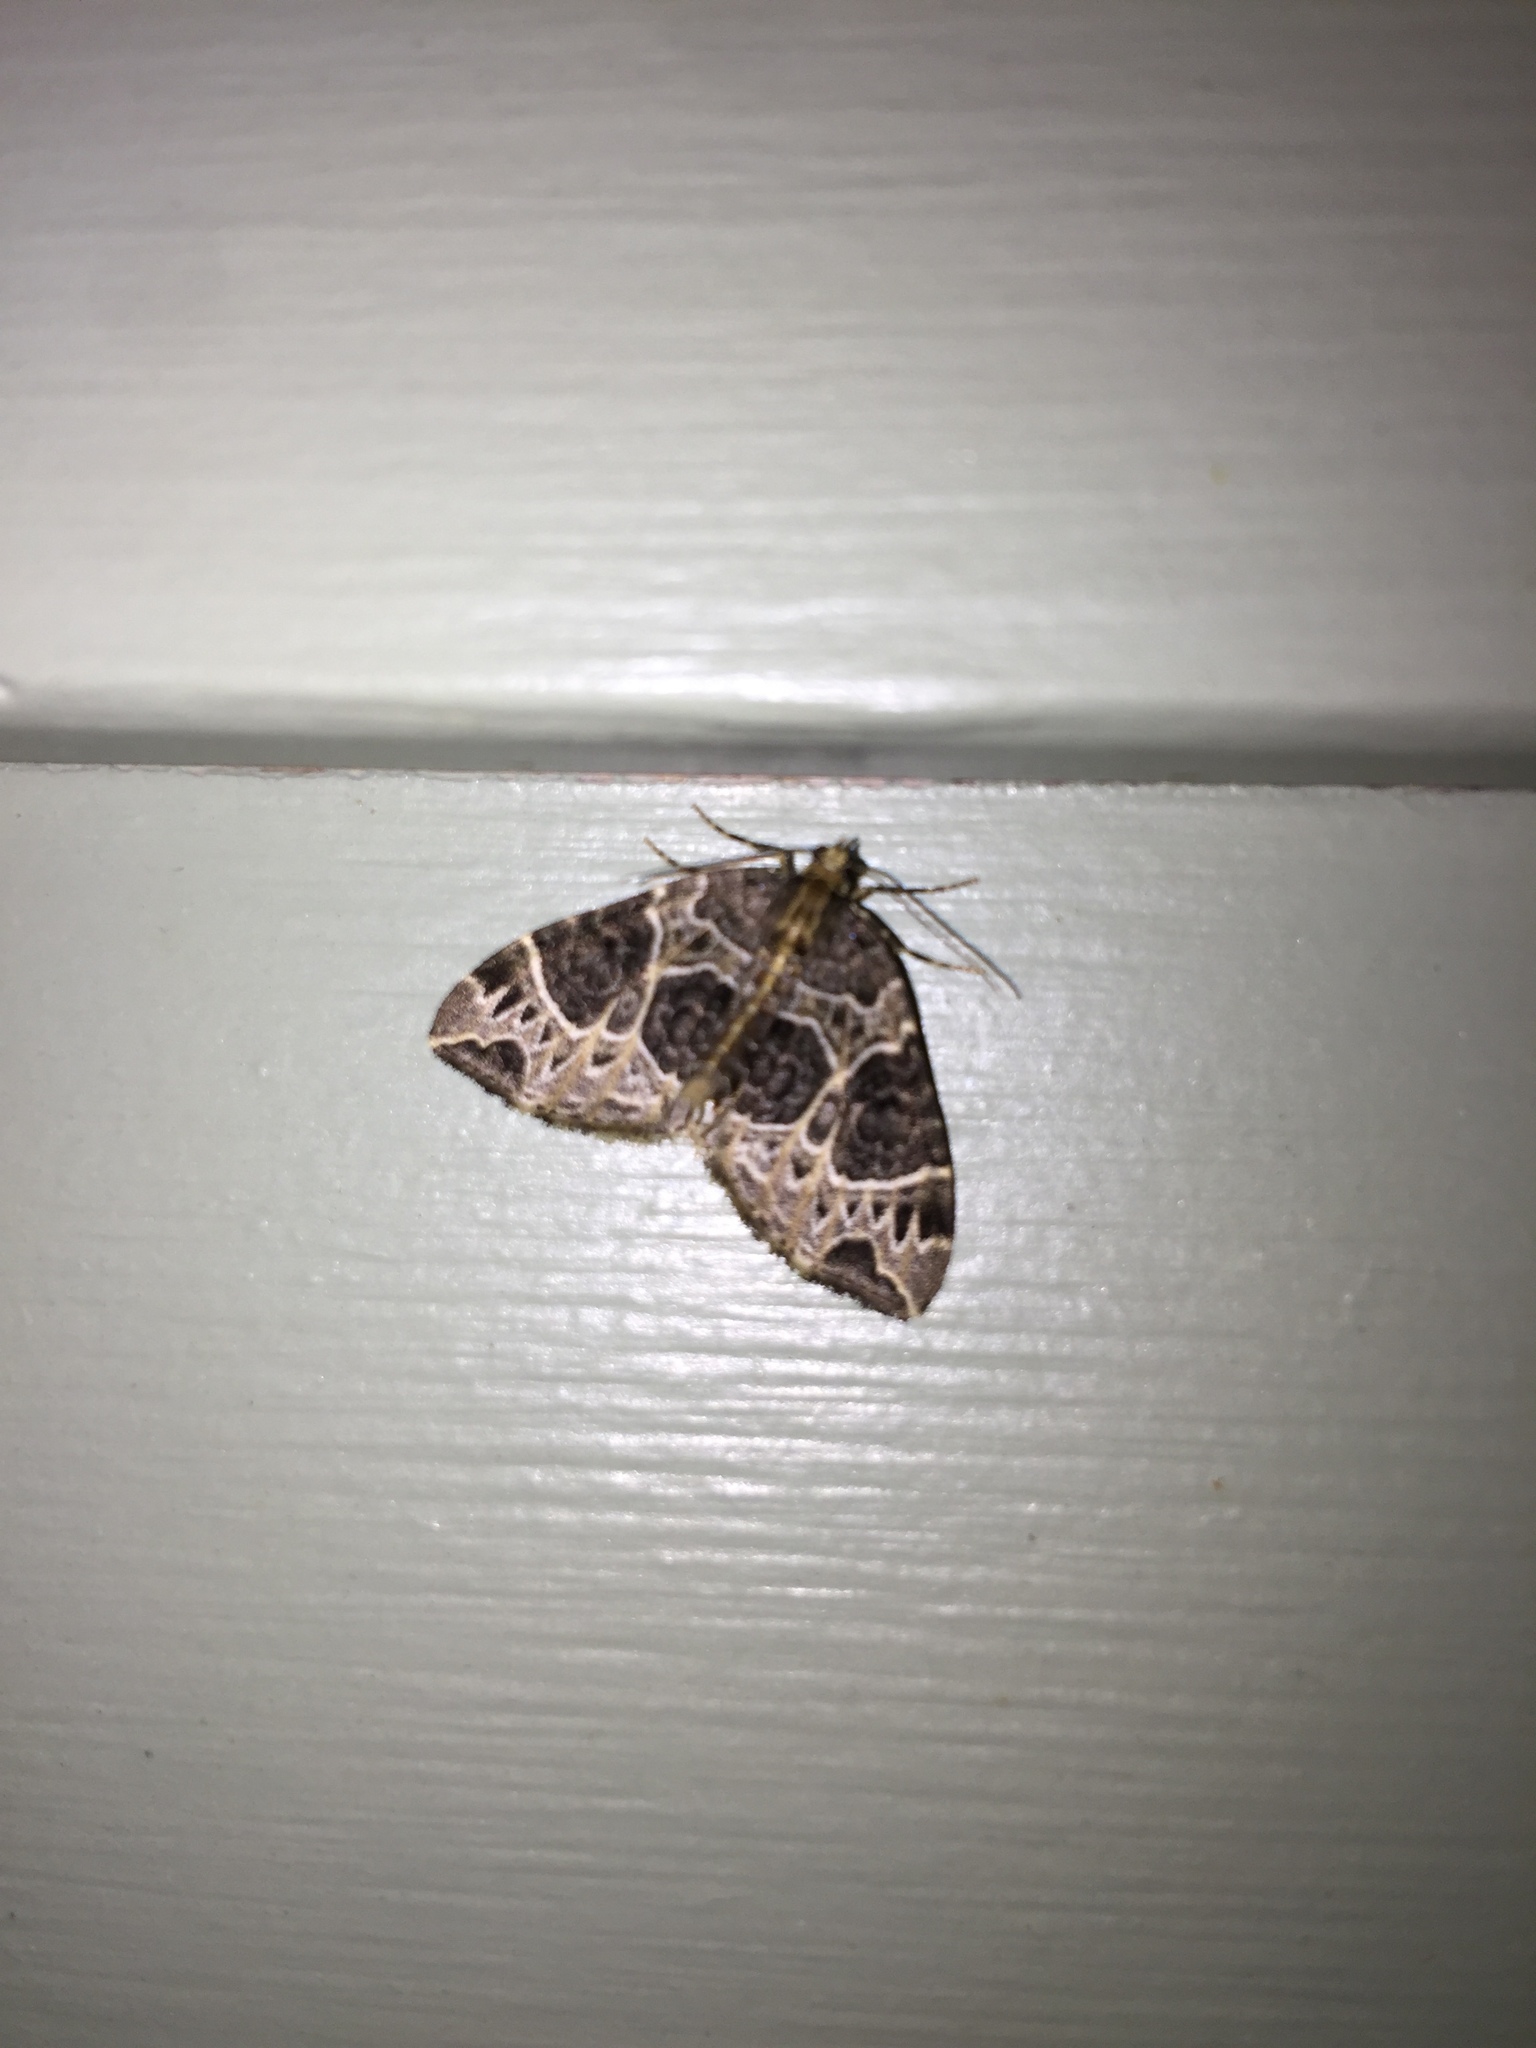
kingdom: Animalia
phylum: Arthropoda
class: Insecta
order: Lepidoptera
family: Geometridae
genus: Ecliptopera
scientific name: Ecliptopera silaceata
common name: Small phoenix
